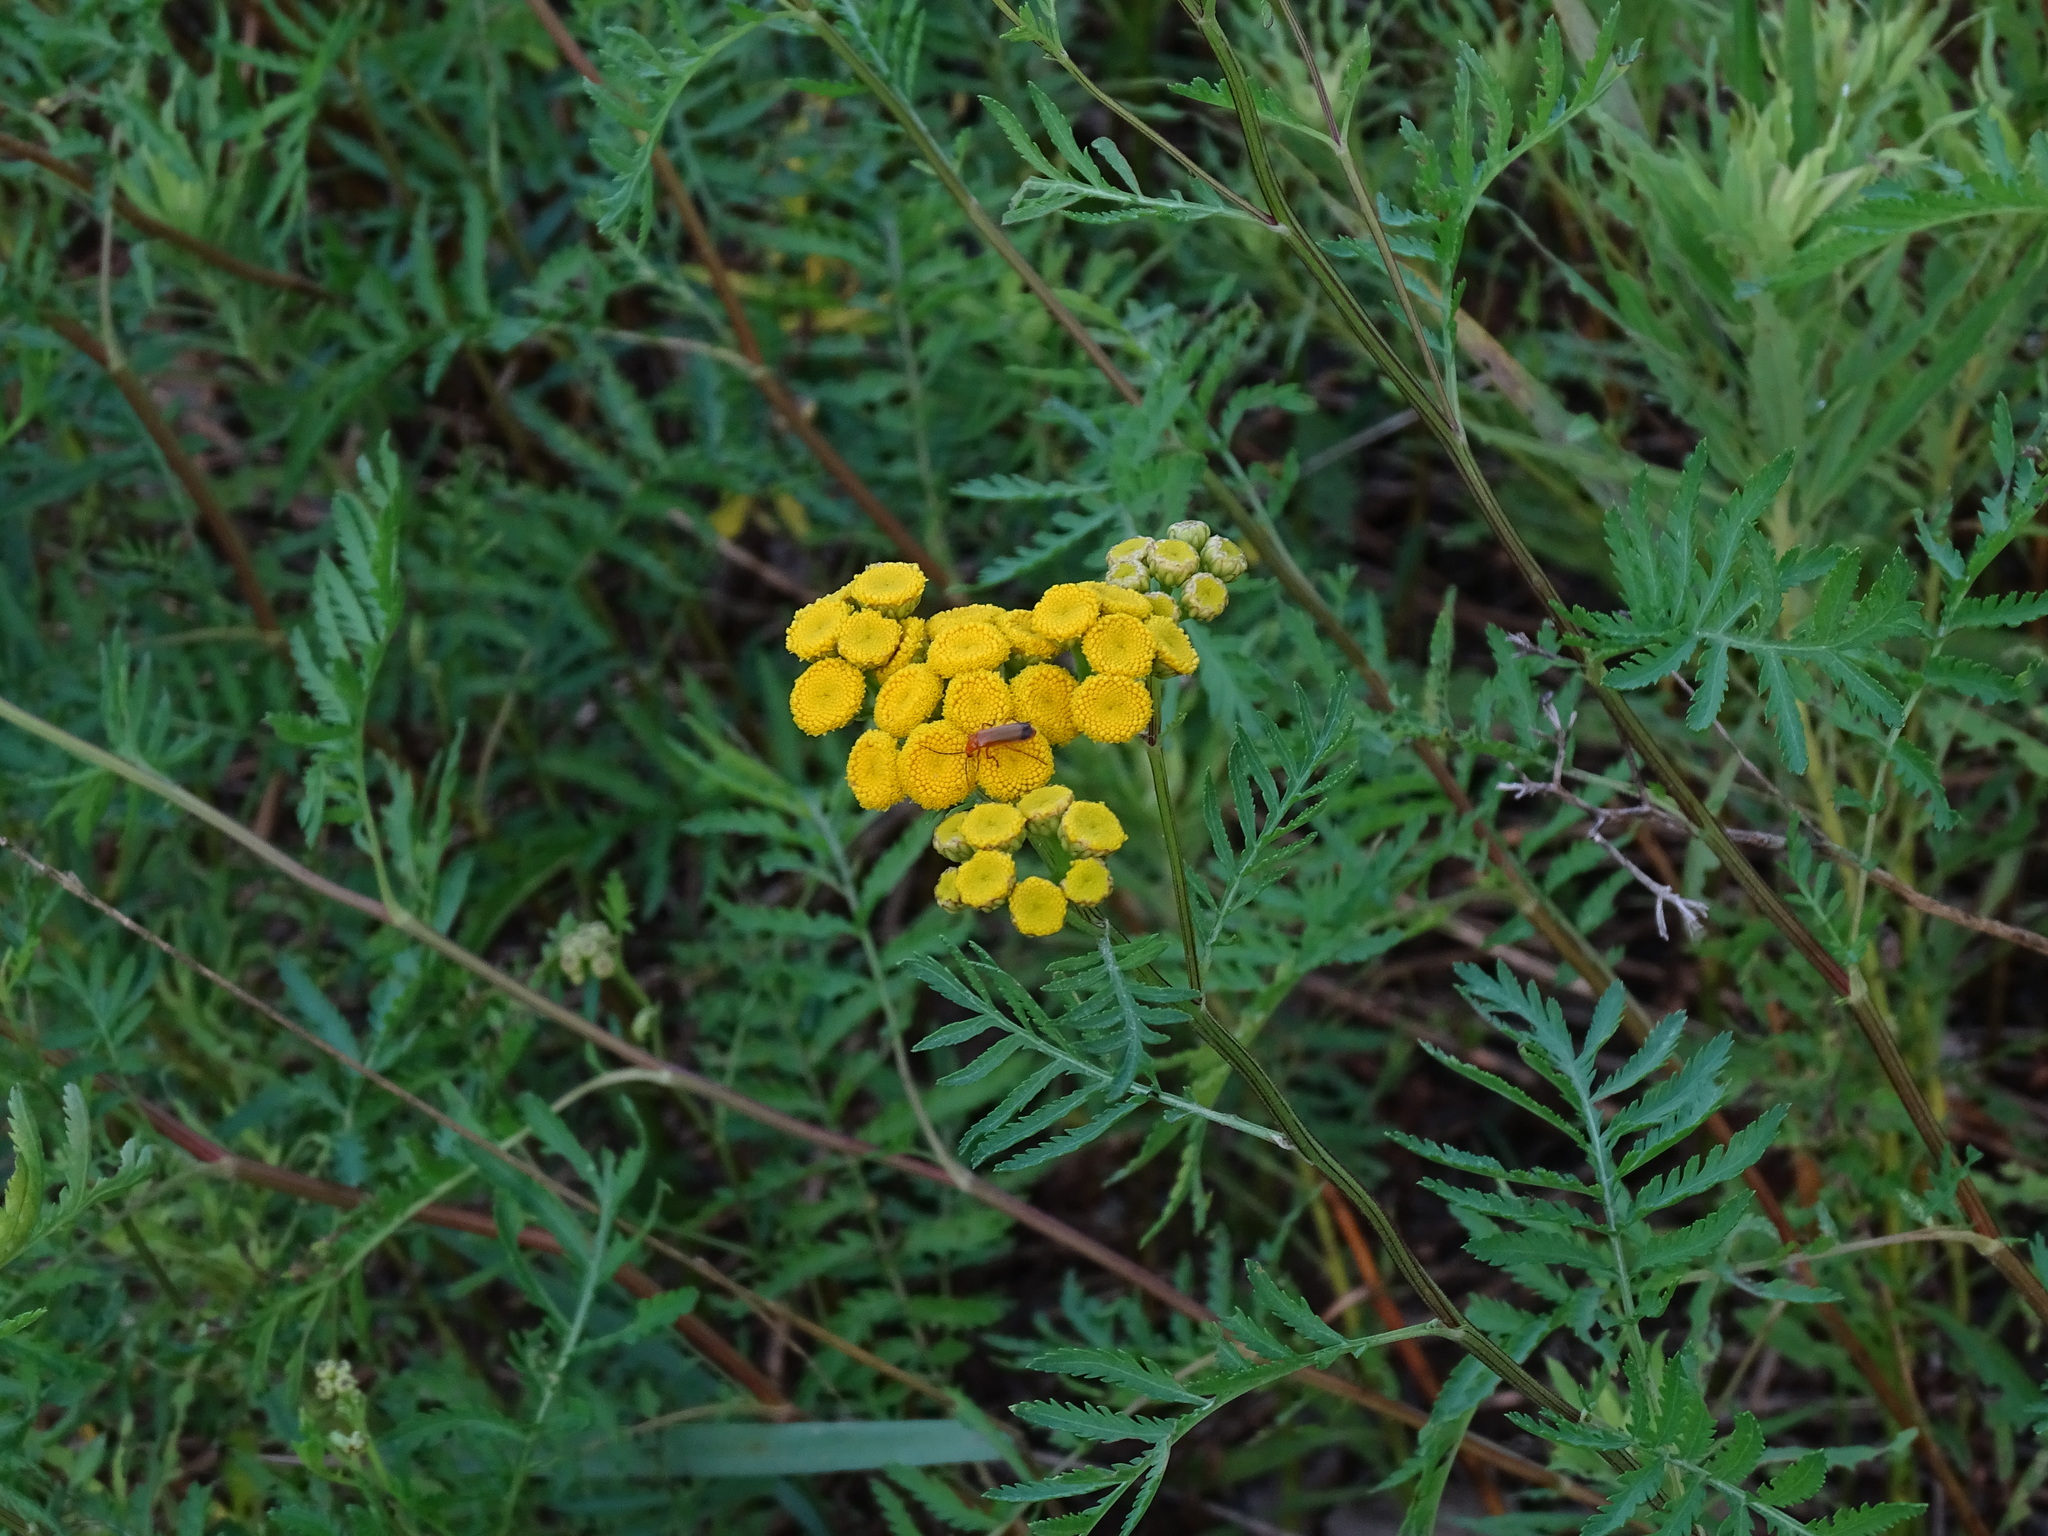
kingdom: Plantae
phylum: Tracheophyta
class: Magnoliopsida
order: Asterales
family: Asteraceae
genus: Tanacetum
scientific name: Tanacetum vulgare
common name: Common tansy
